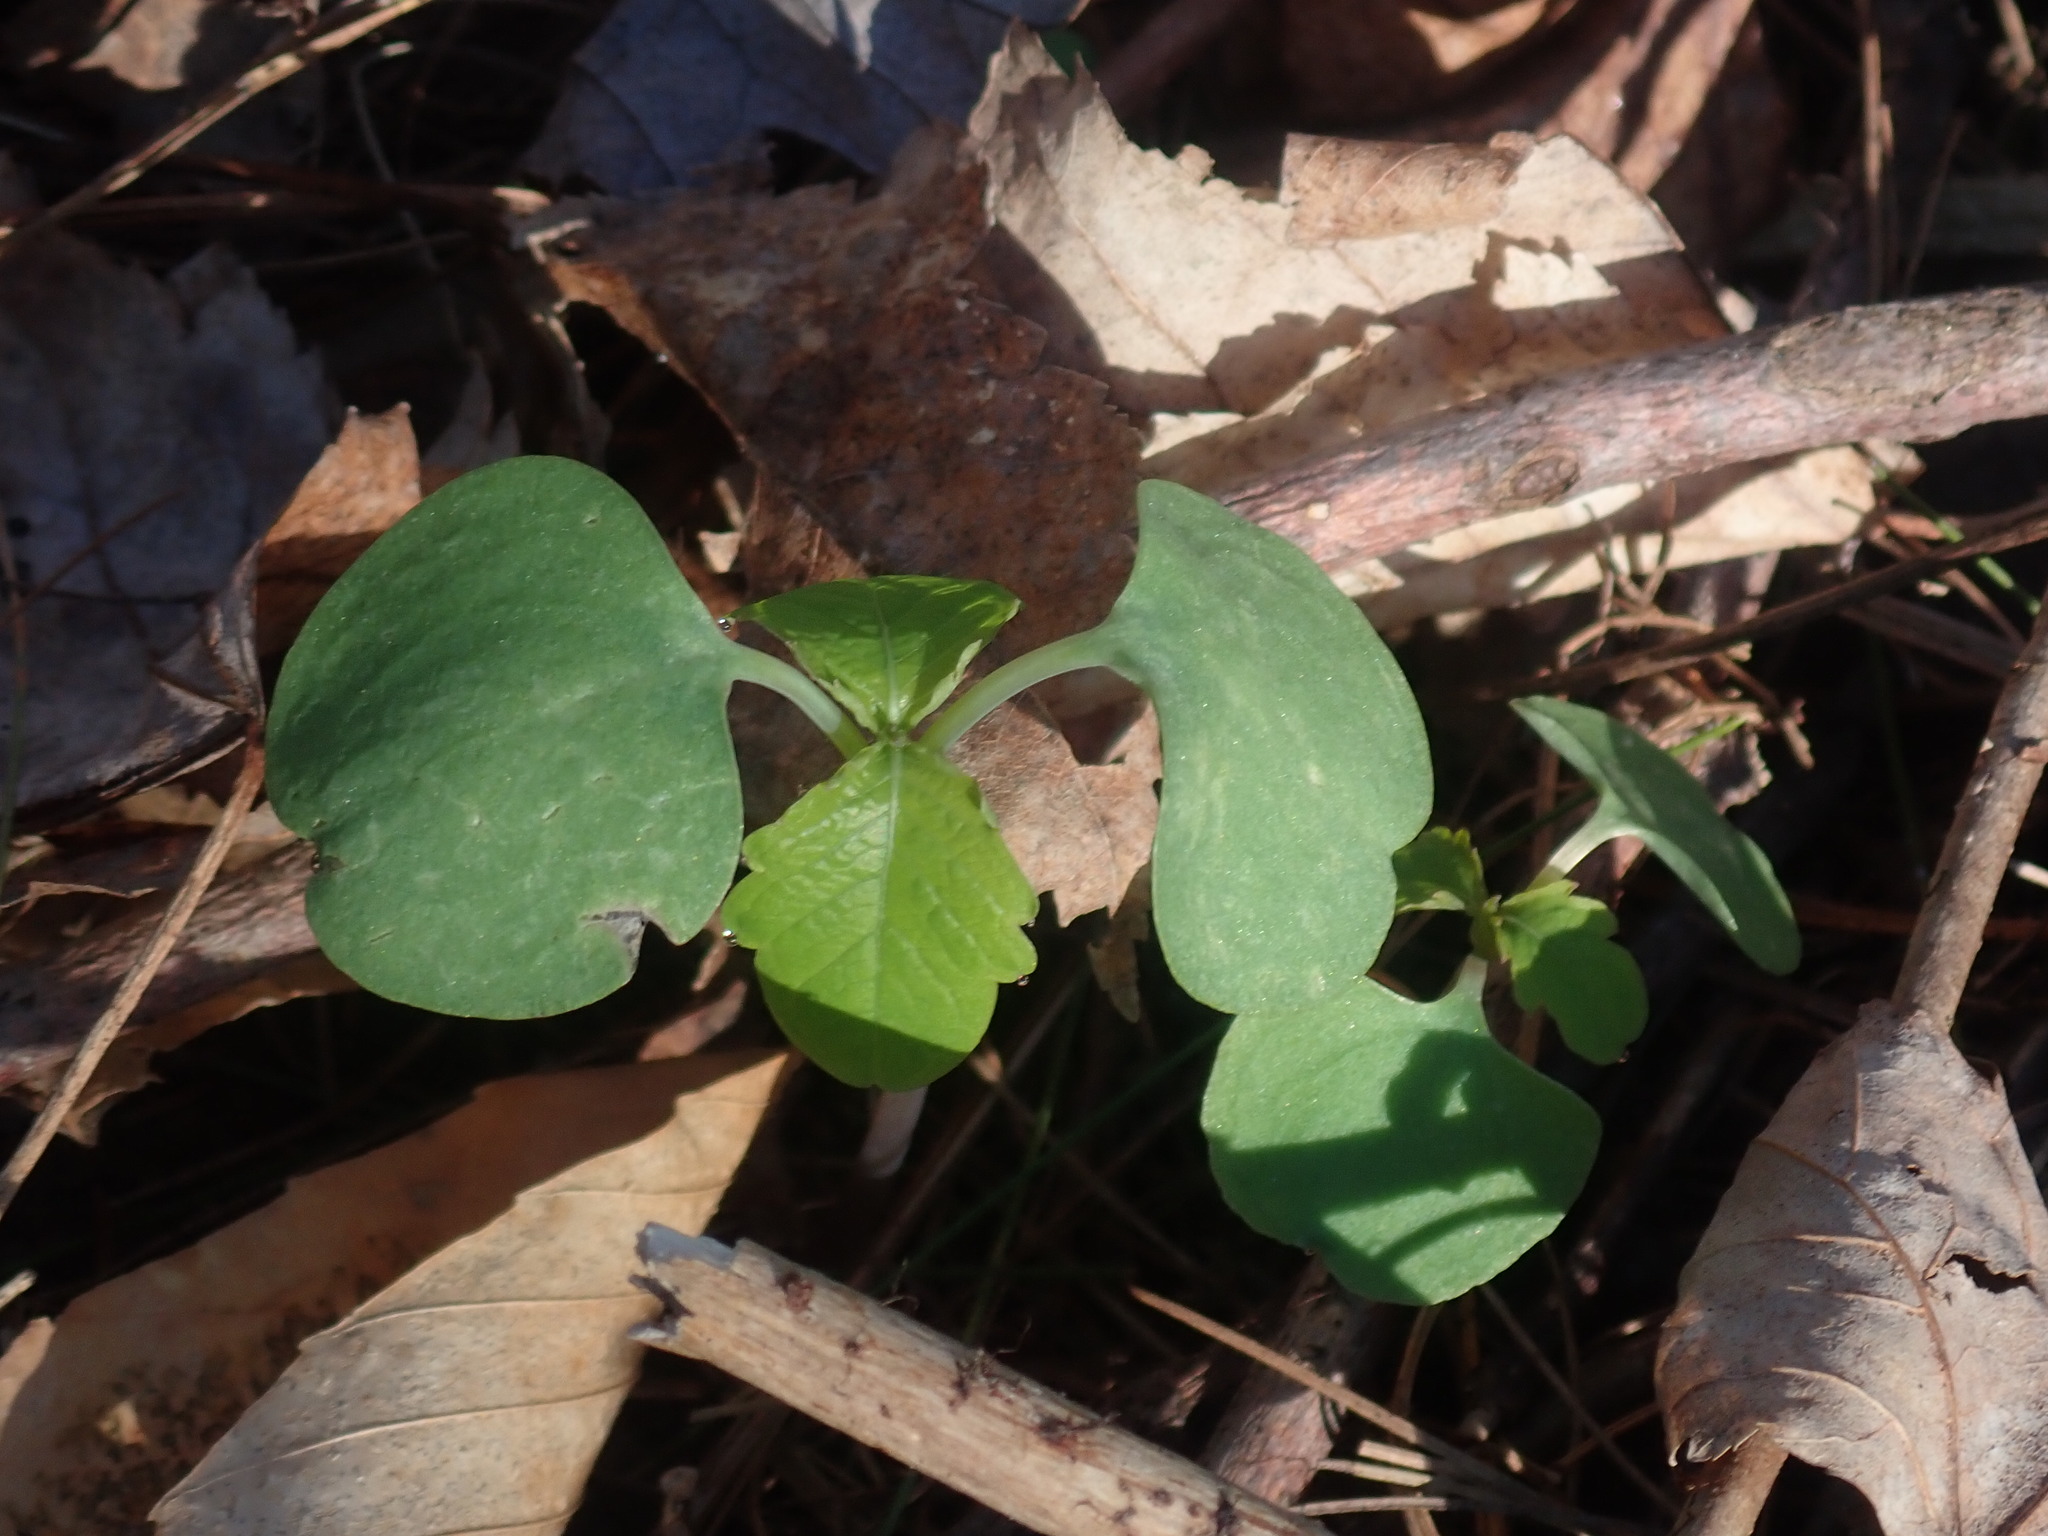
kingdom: Plantae
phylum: Tracheophyta
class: Magnoliopsida
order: Ericales
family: Balsaminaceae
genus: Impatiens
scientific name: Impatiens
